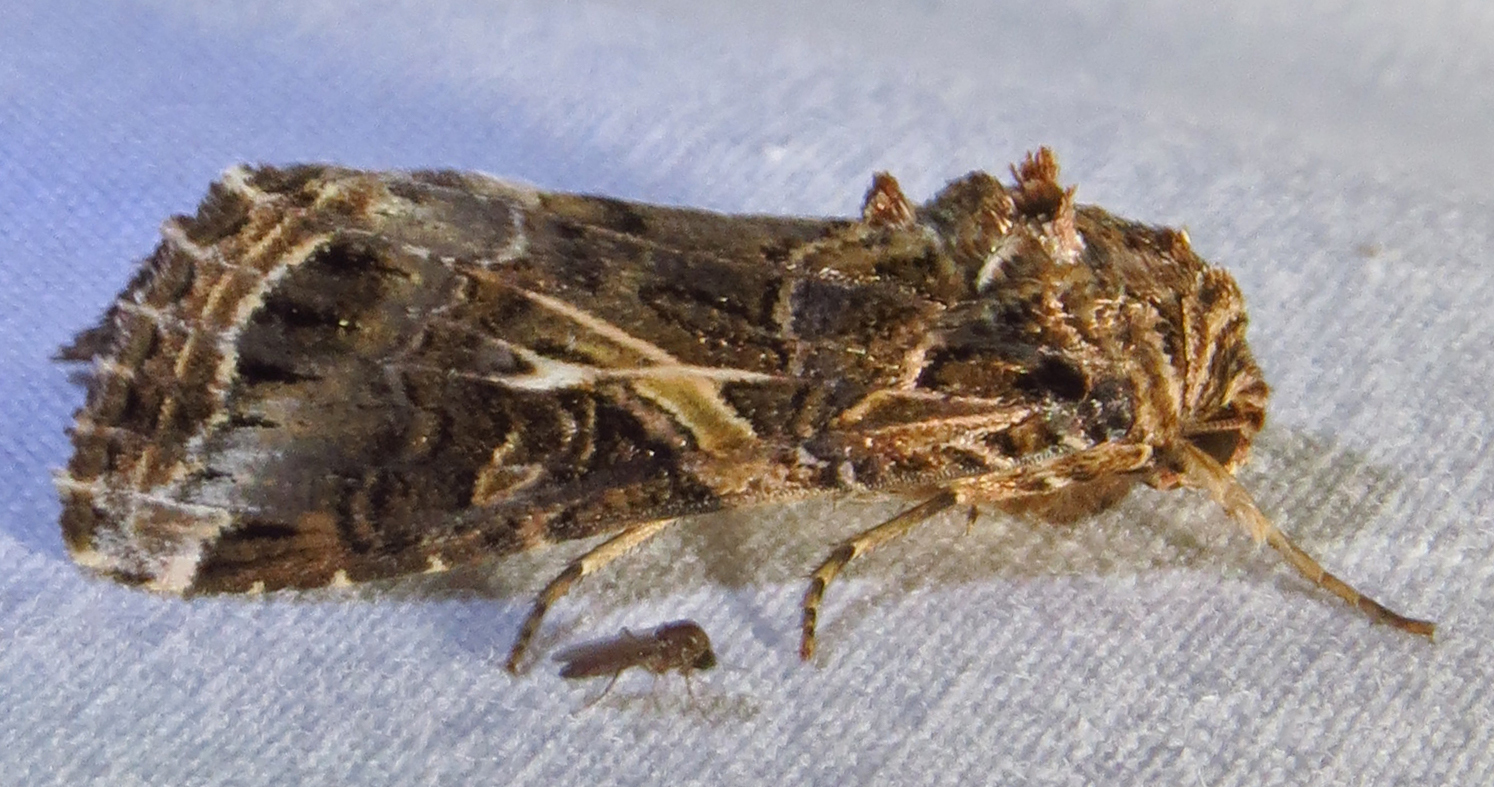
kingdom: Animalia
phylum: Arthropoda
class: Insecta
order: Lepidoptera
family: Noctuidae
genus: Spodoptera
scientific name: Spodoptera ornithogalli
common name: Yellow-striped armyworm
